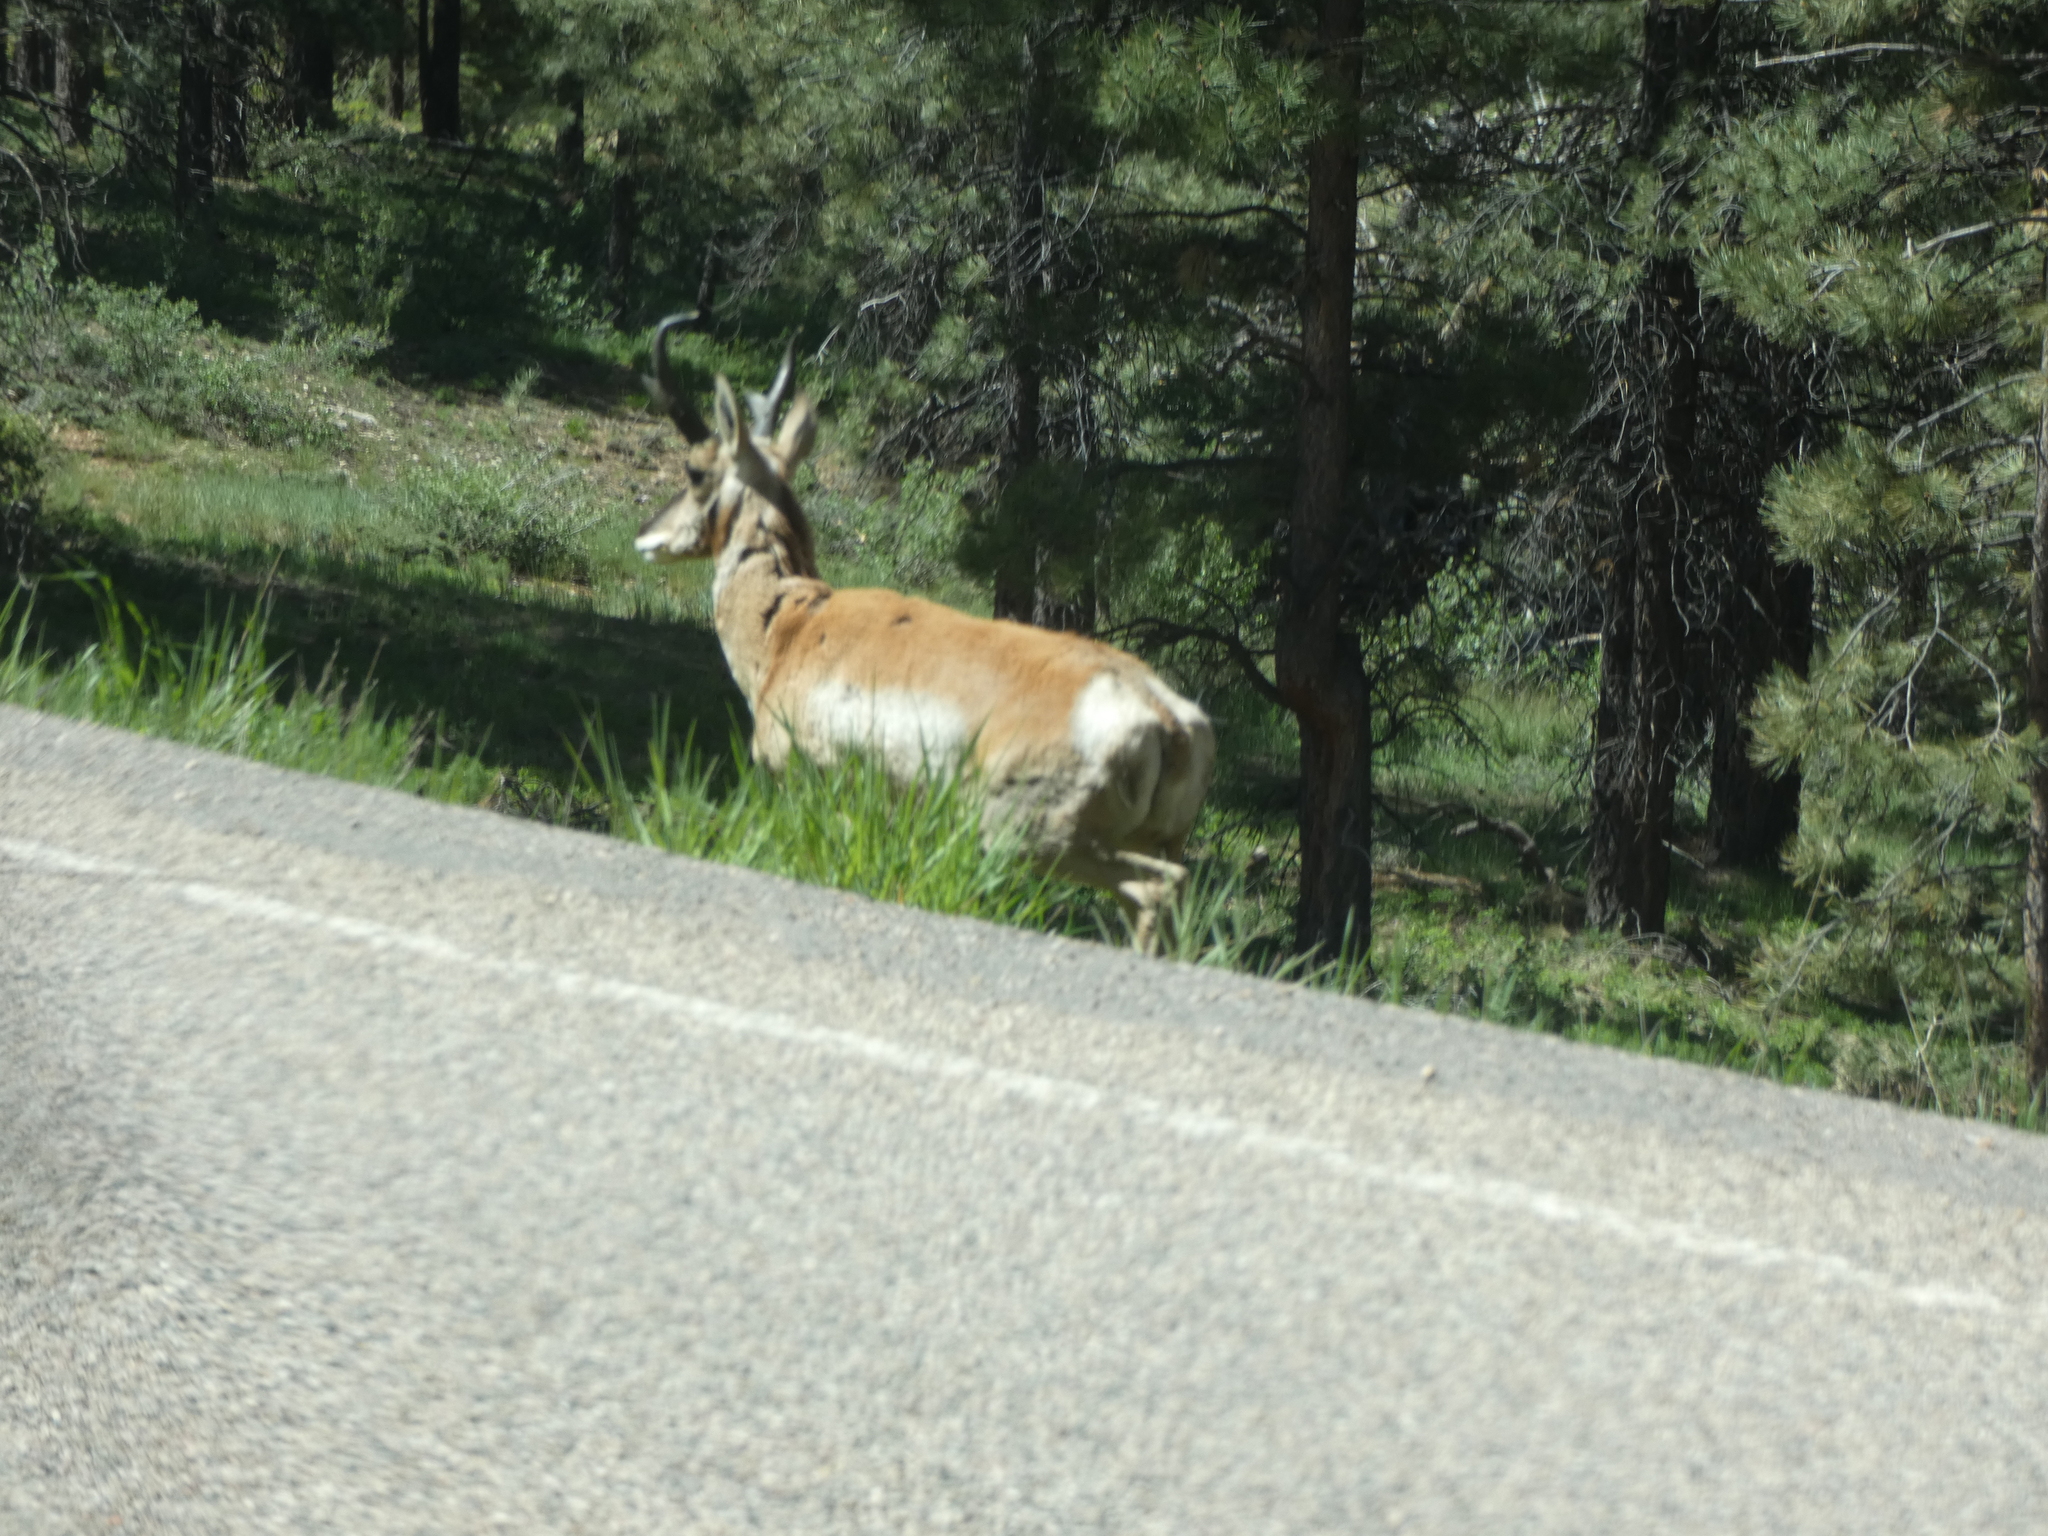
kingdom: Animalia
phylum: Chordata
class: Mammalia
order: Artiodactyla
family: Antilocapridae
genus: Antilocapra
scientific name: Antilocapra americana
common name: Pronghorn
